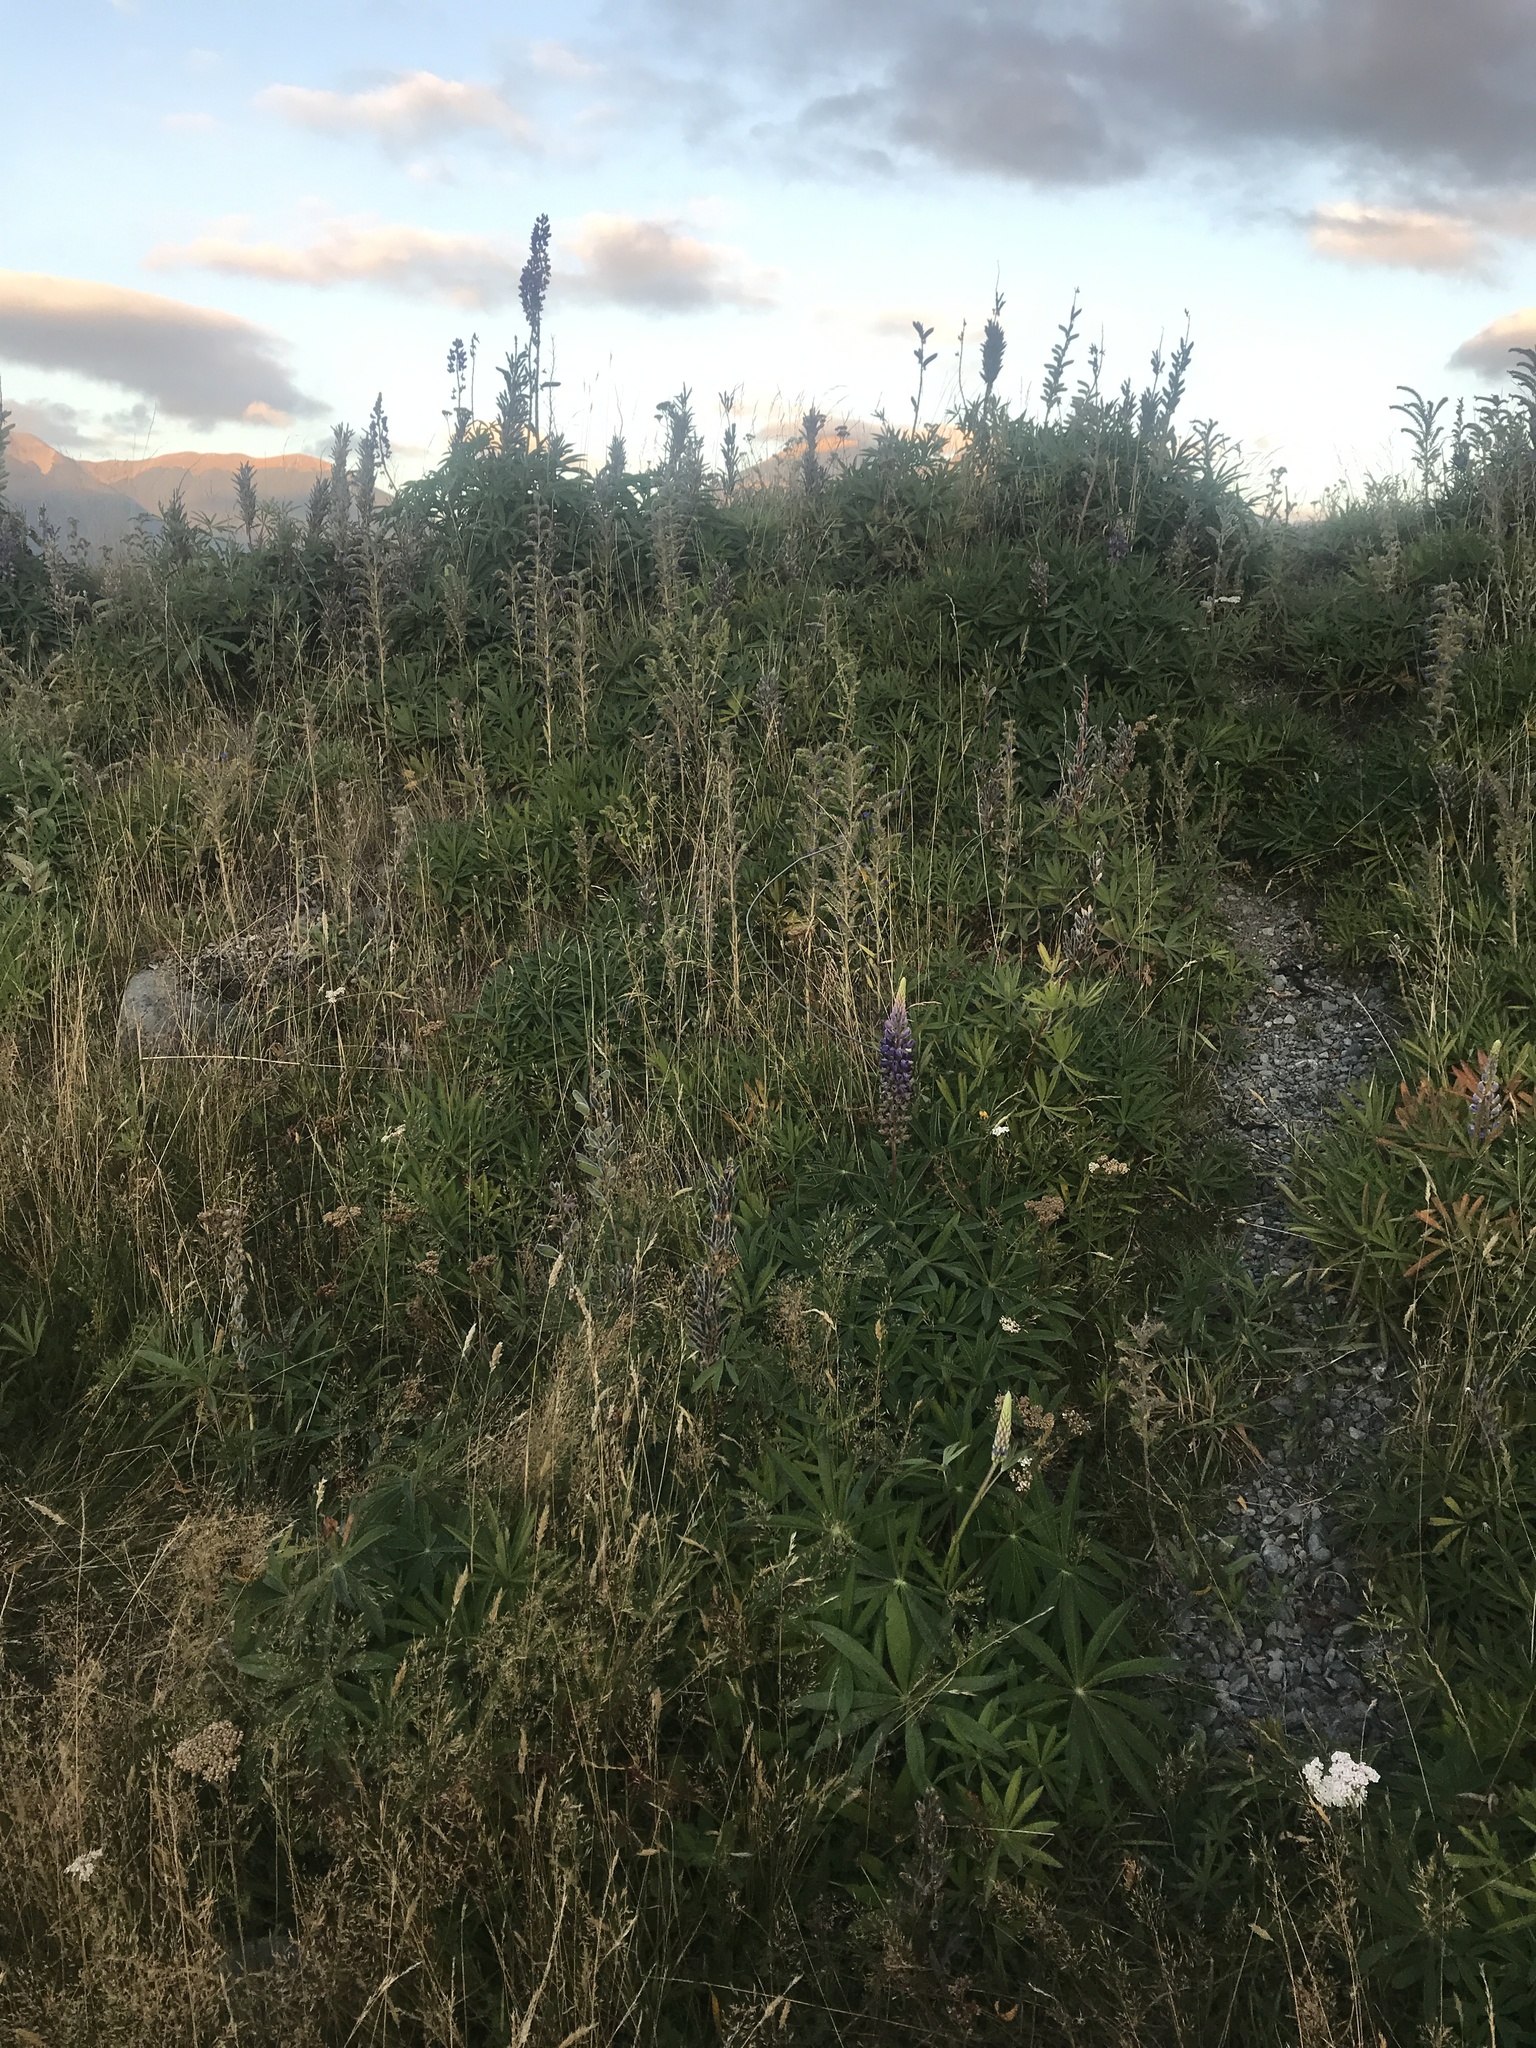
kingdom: Plantae
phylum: Tracheophyta
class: Magnoliopsida
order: Fabales
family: Fabaceae
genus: Lupinus
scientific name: Lupinus polyphyllus
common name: Garden lupin
